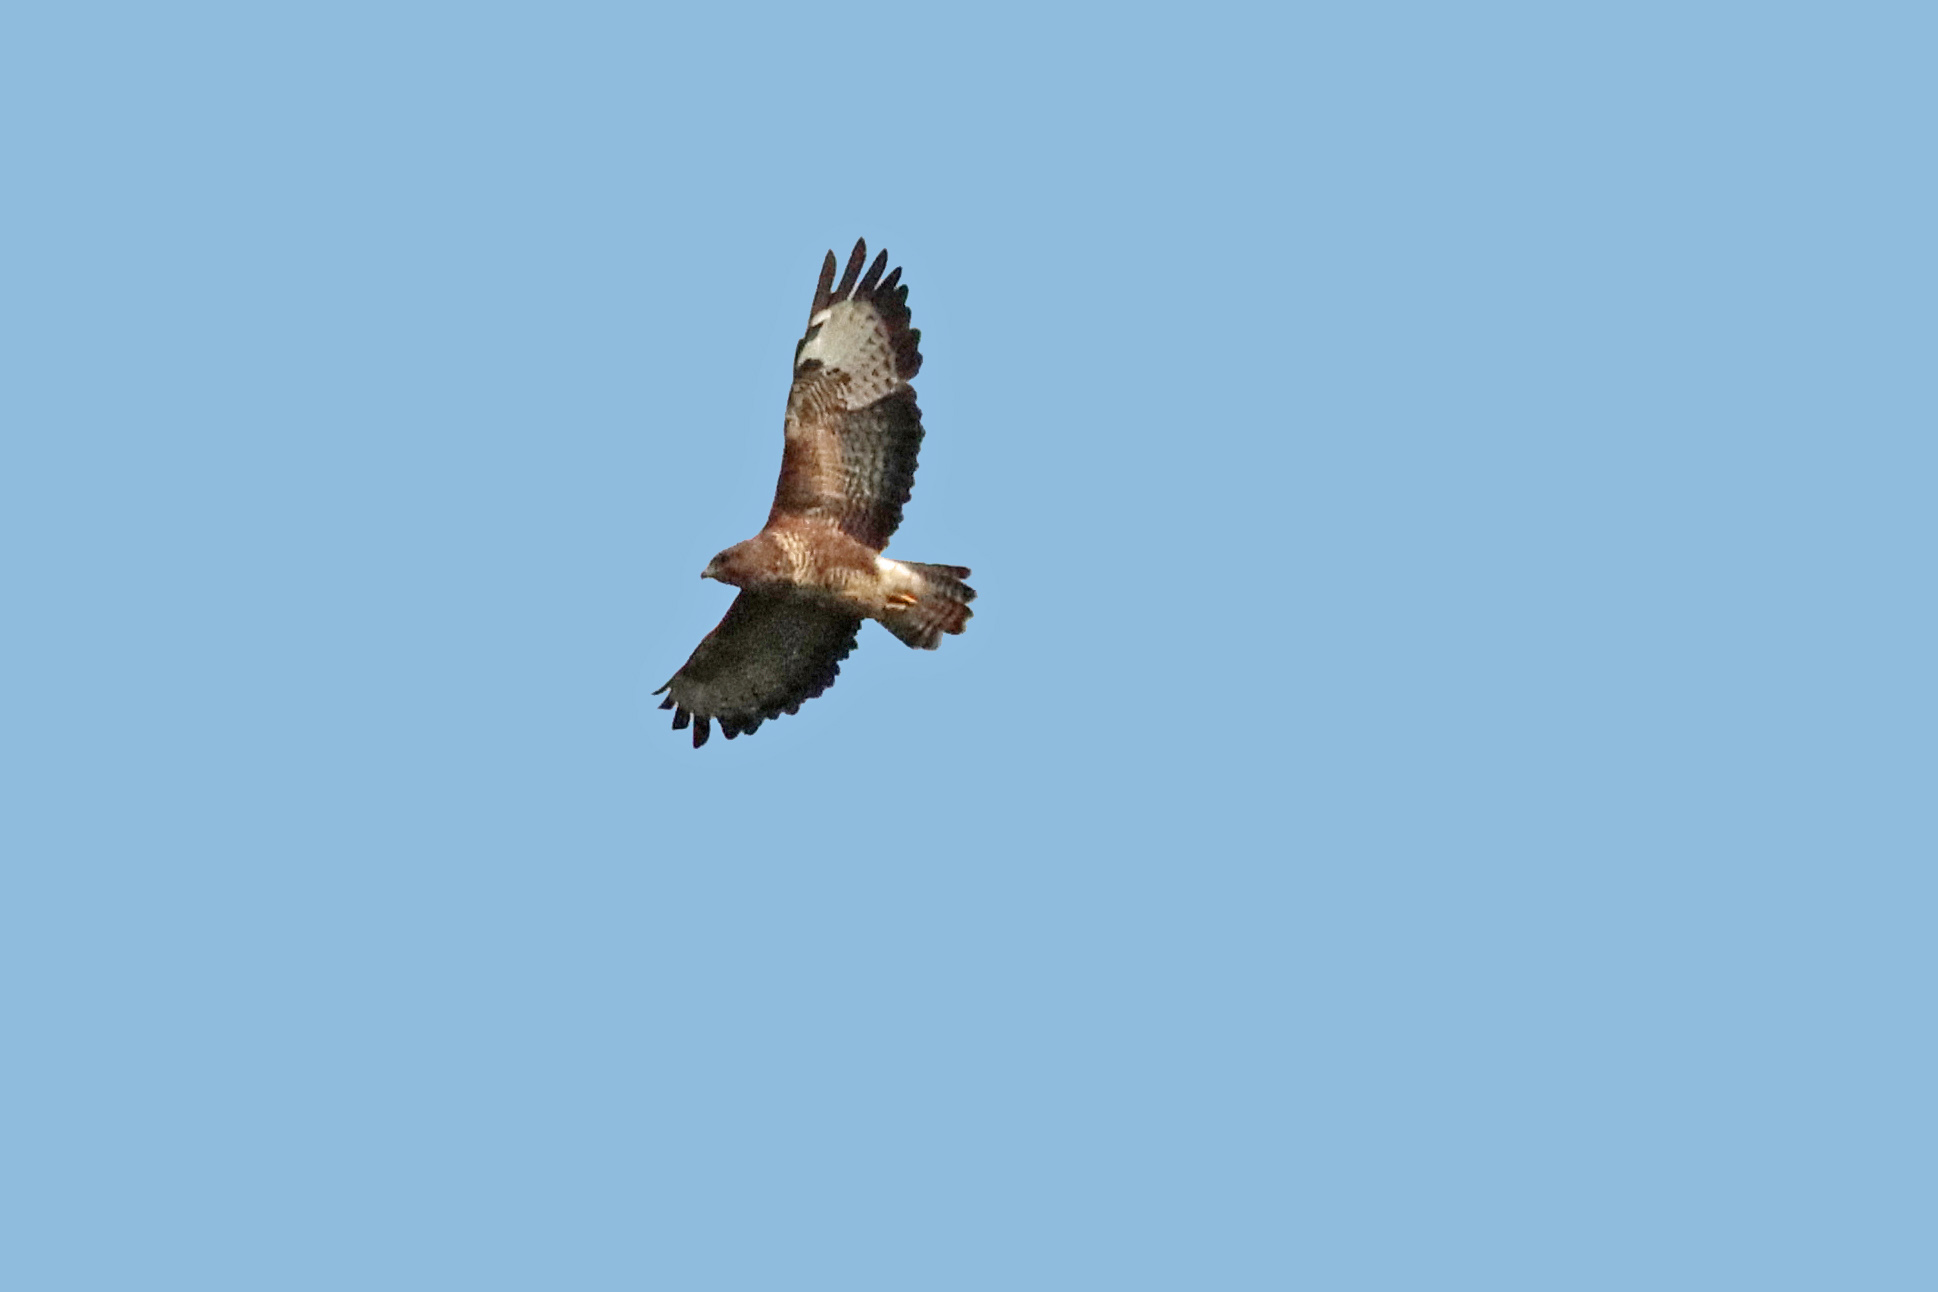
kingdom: Animalia
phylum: Chordata
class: Aves
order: Accipitriformes
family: Accipitridae
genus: Buteo
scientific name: Buteo buteo
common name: Common buzzard
